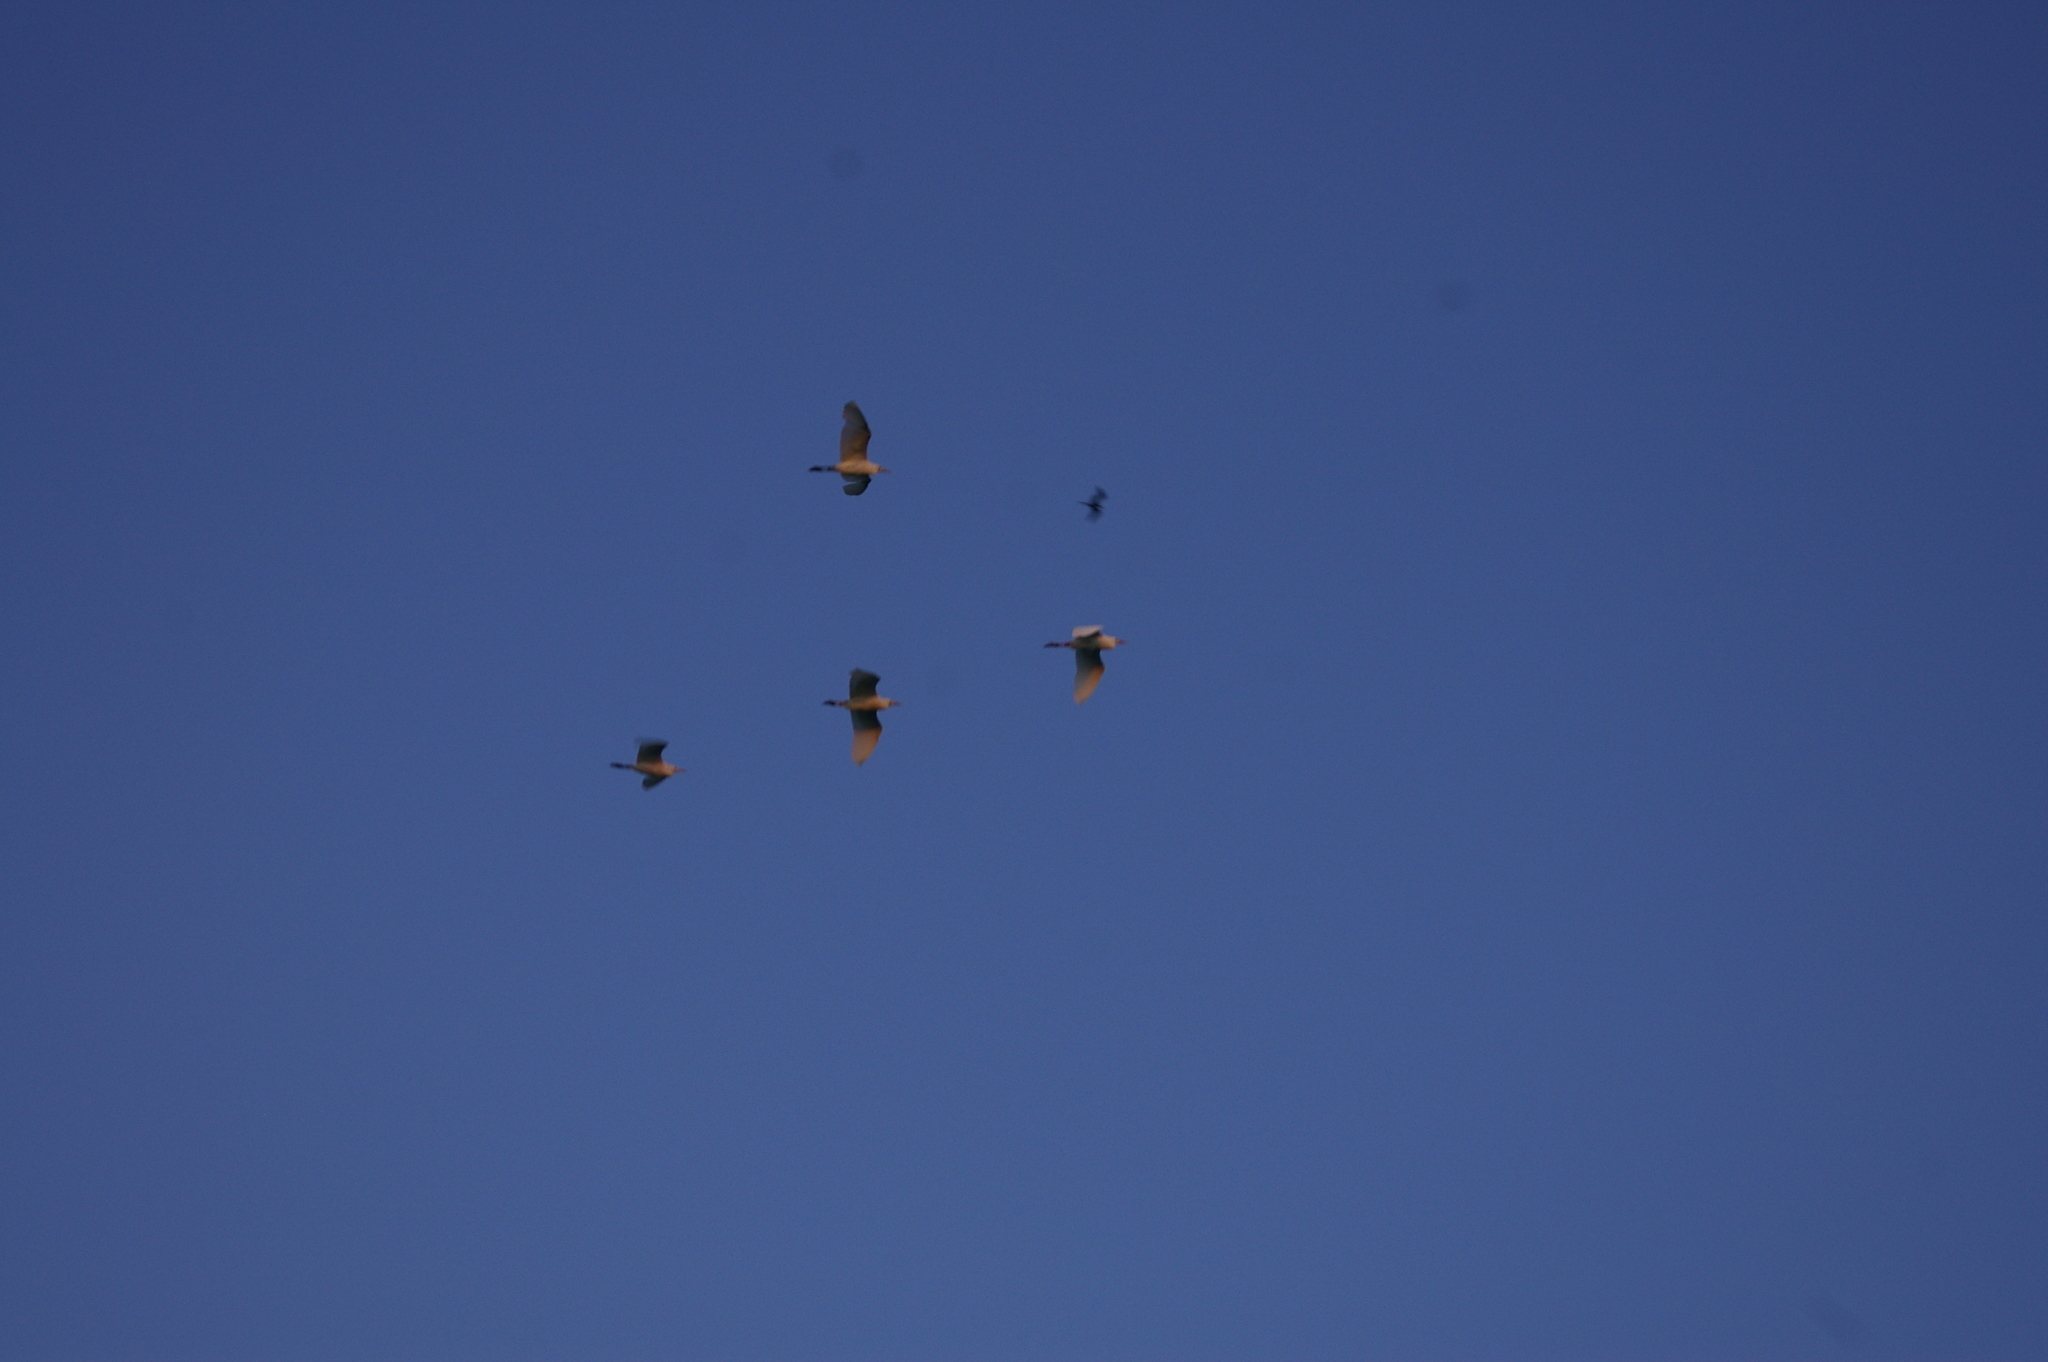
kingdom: Animalia
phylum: Chordata
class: Aves
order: Pelecaniformes
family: Ardeidae
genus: Bubulcus
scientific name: Bubulcus ibis
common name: Cattle egret
